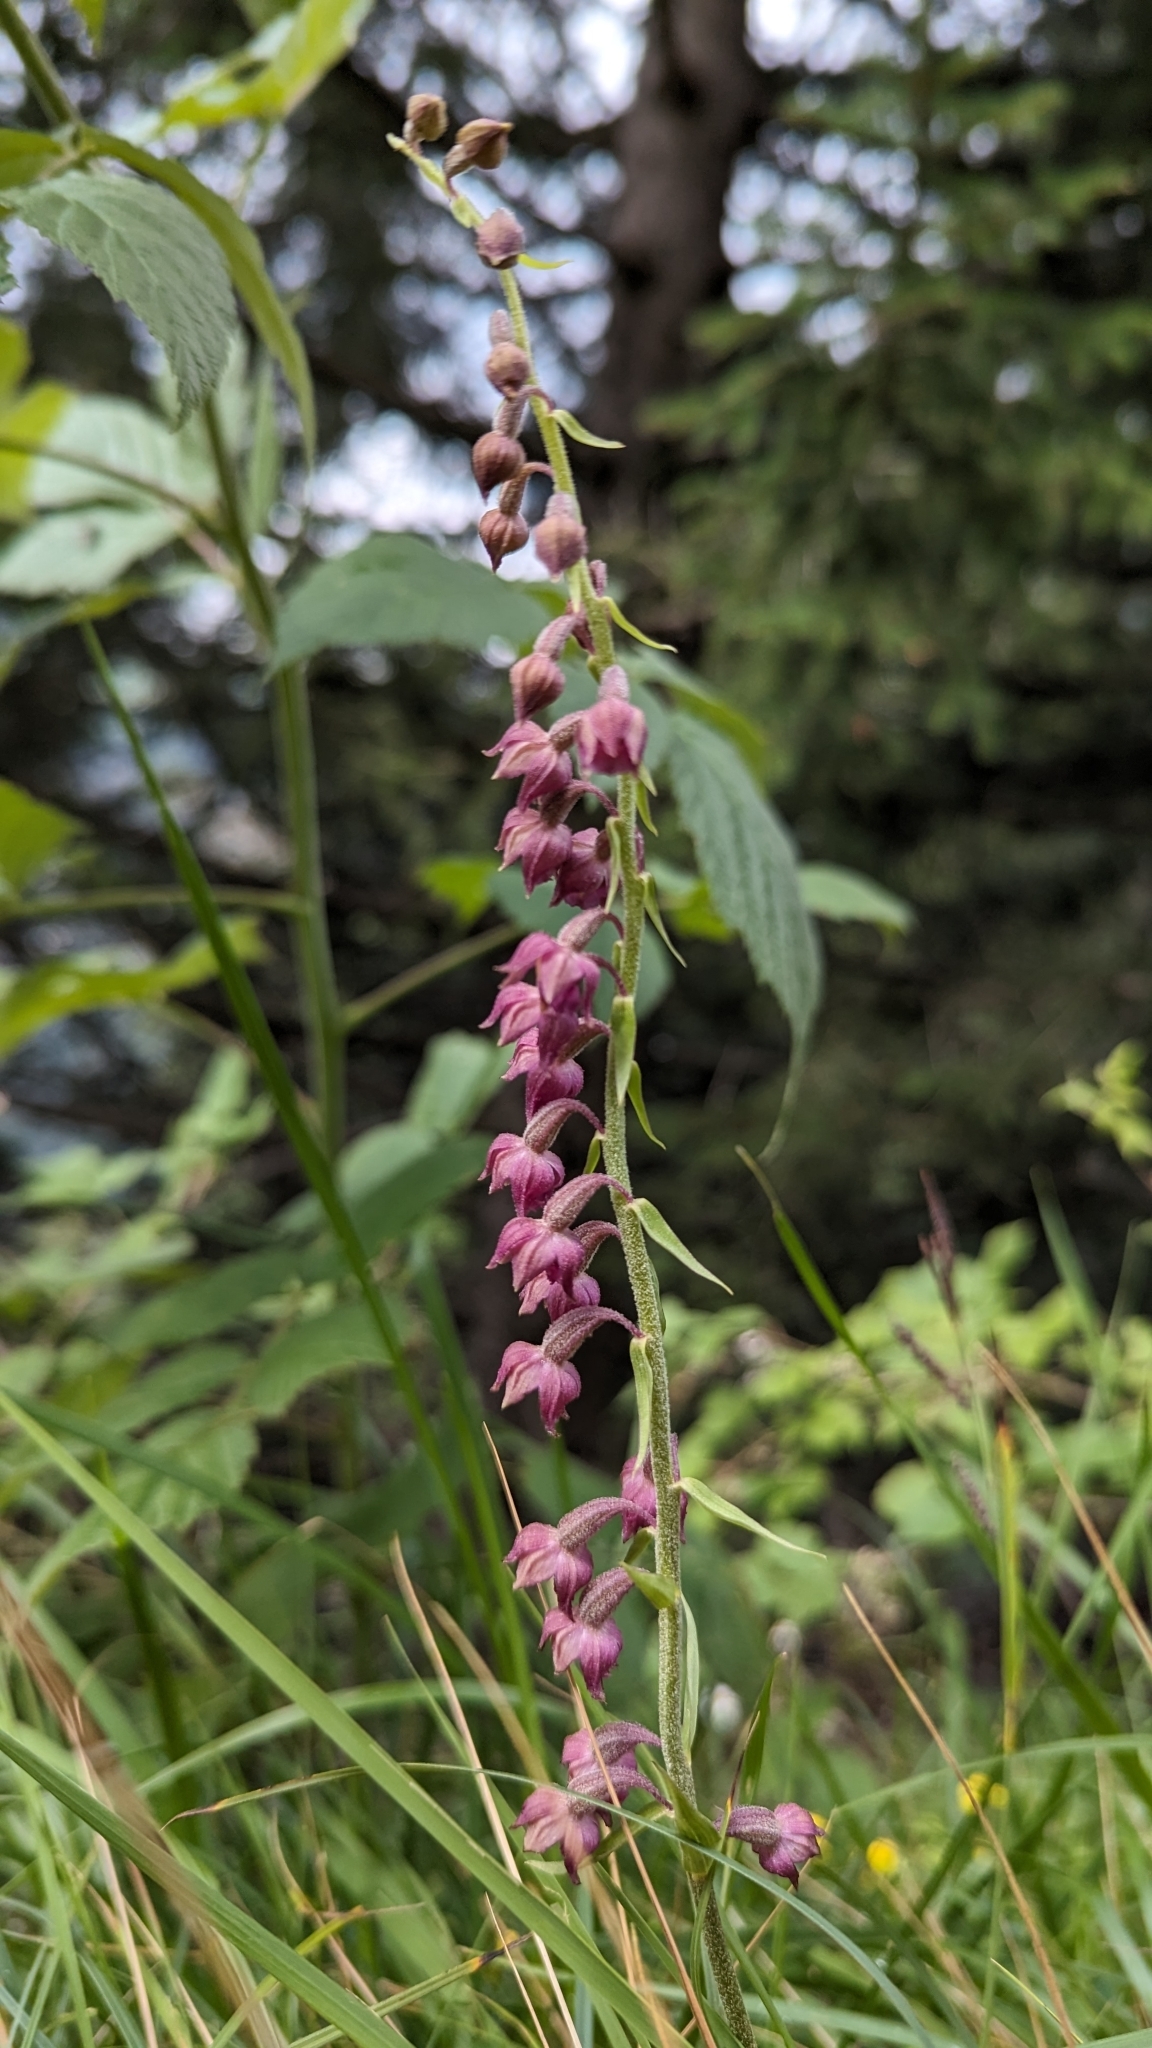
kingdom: Plantae
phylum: Tracheophyta
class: Liliopsida
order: Asparagales
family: Orchidaceae
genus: Epipactis
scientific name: Epipactis atrorubens
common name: Dark-red helleborine
